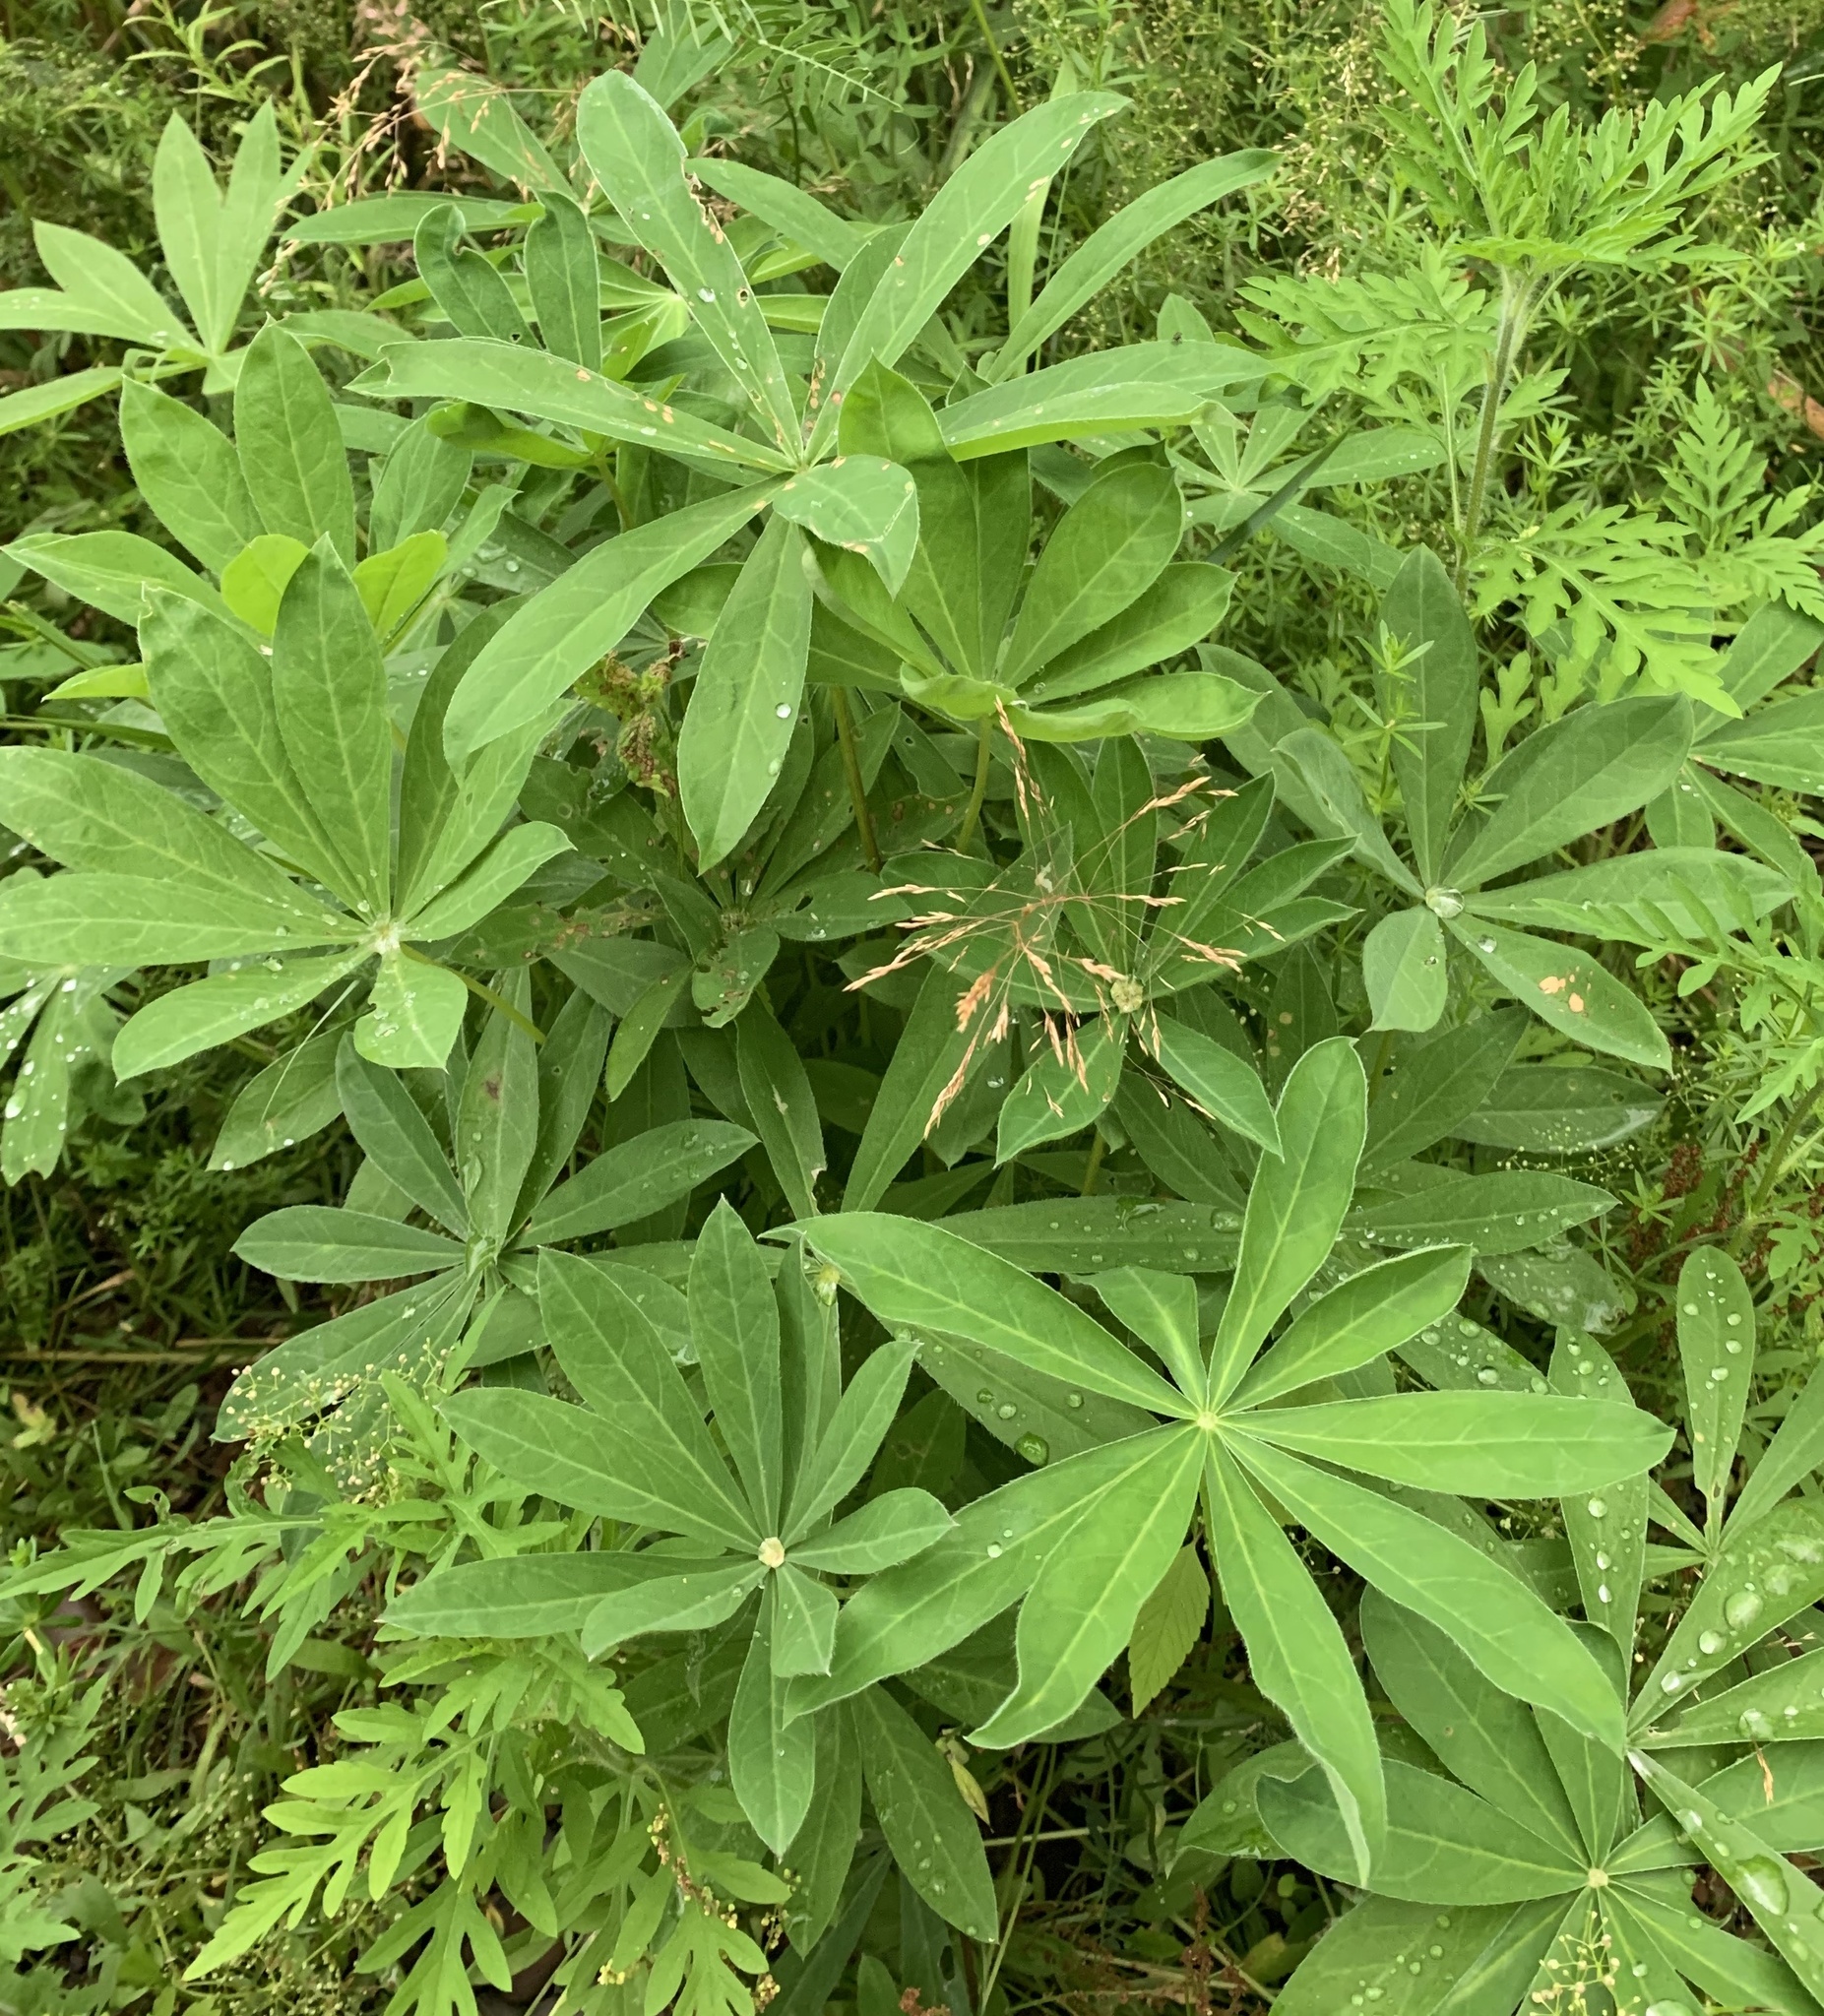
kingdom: Plantae
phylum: Tracheophyta
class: Magnoliopsida
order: Fabales
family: Fabaceae
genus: Lupinus
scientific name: Lupinus polyphyllus
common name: Garden lupin
